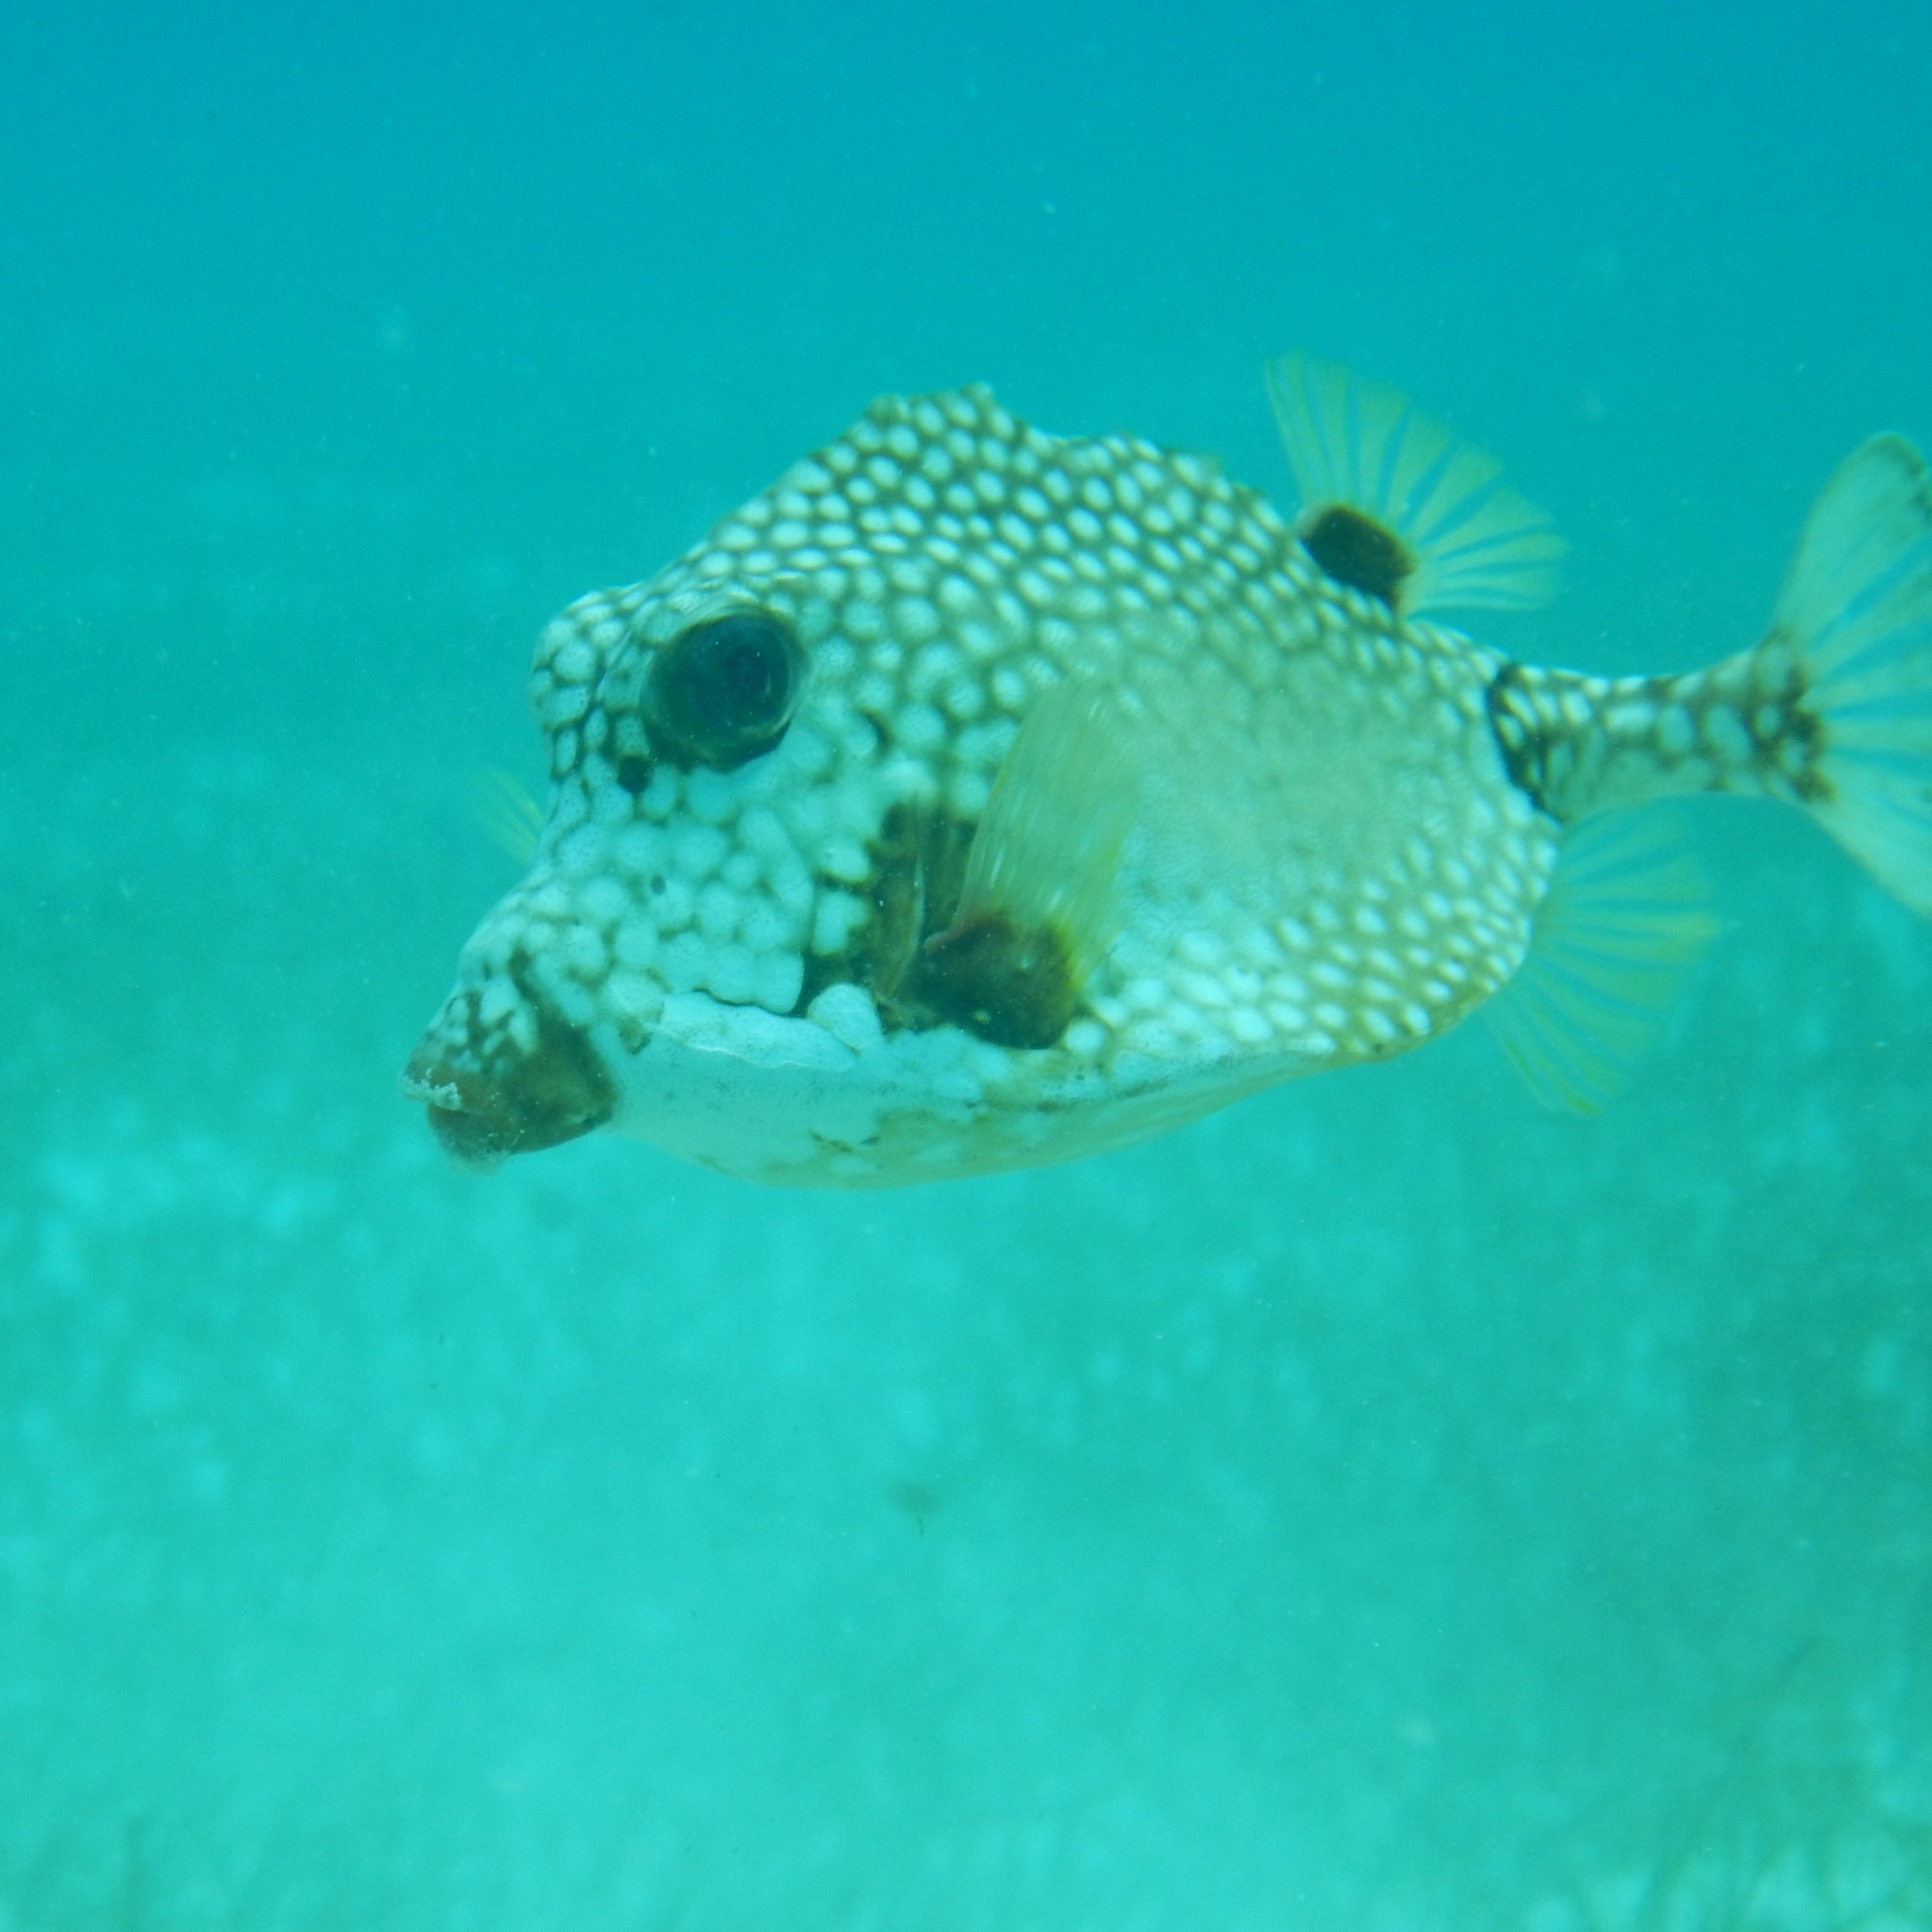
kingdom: Animalia
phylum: Chordata
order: Tetraodontiformes
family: Ostraciidae
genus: Lactophrys
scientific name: Lactophrys triqueter
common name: Smooth trunkfish
